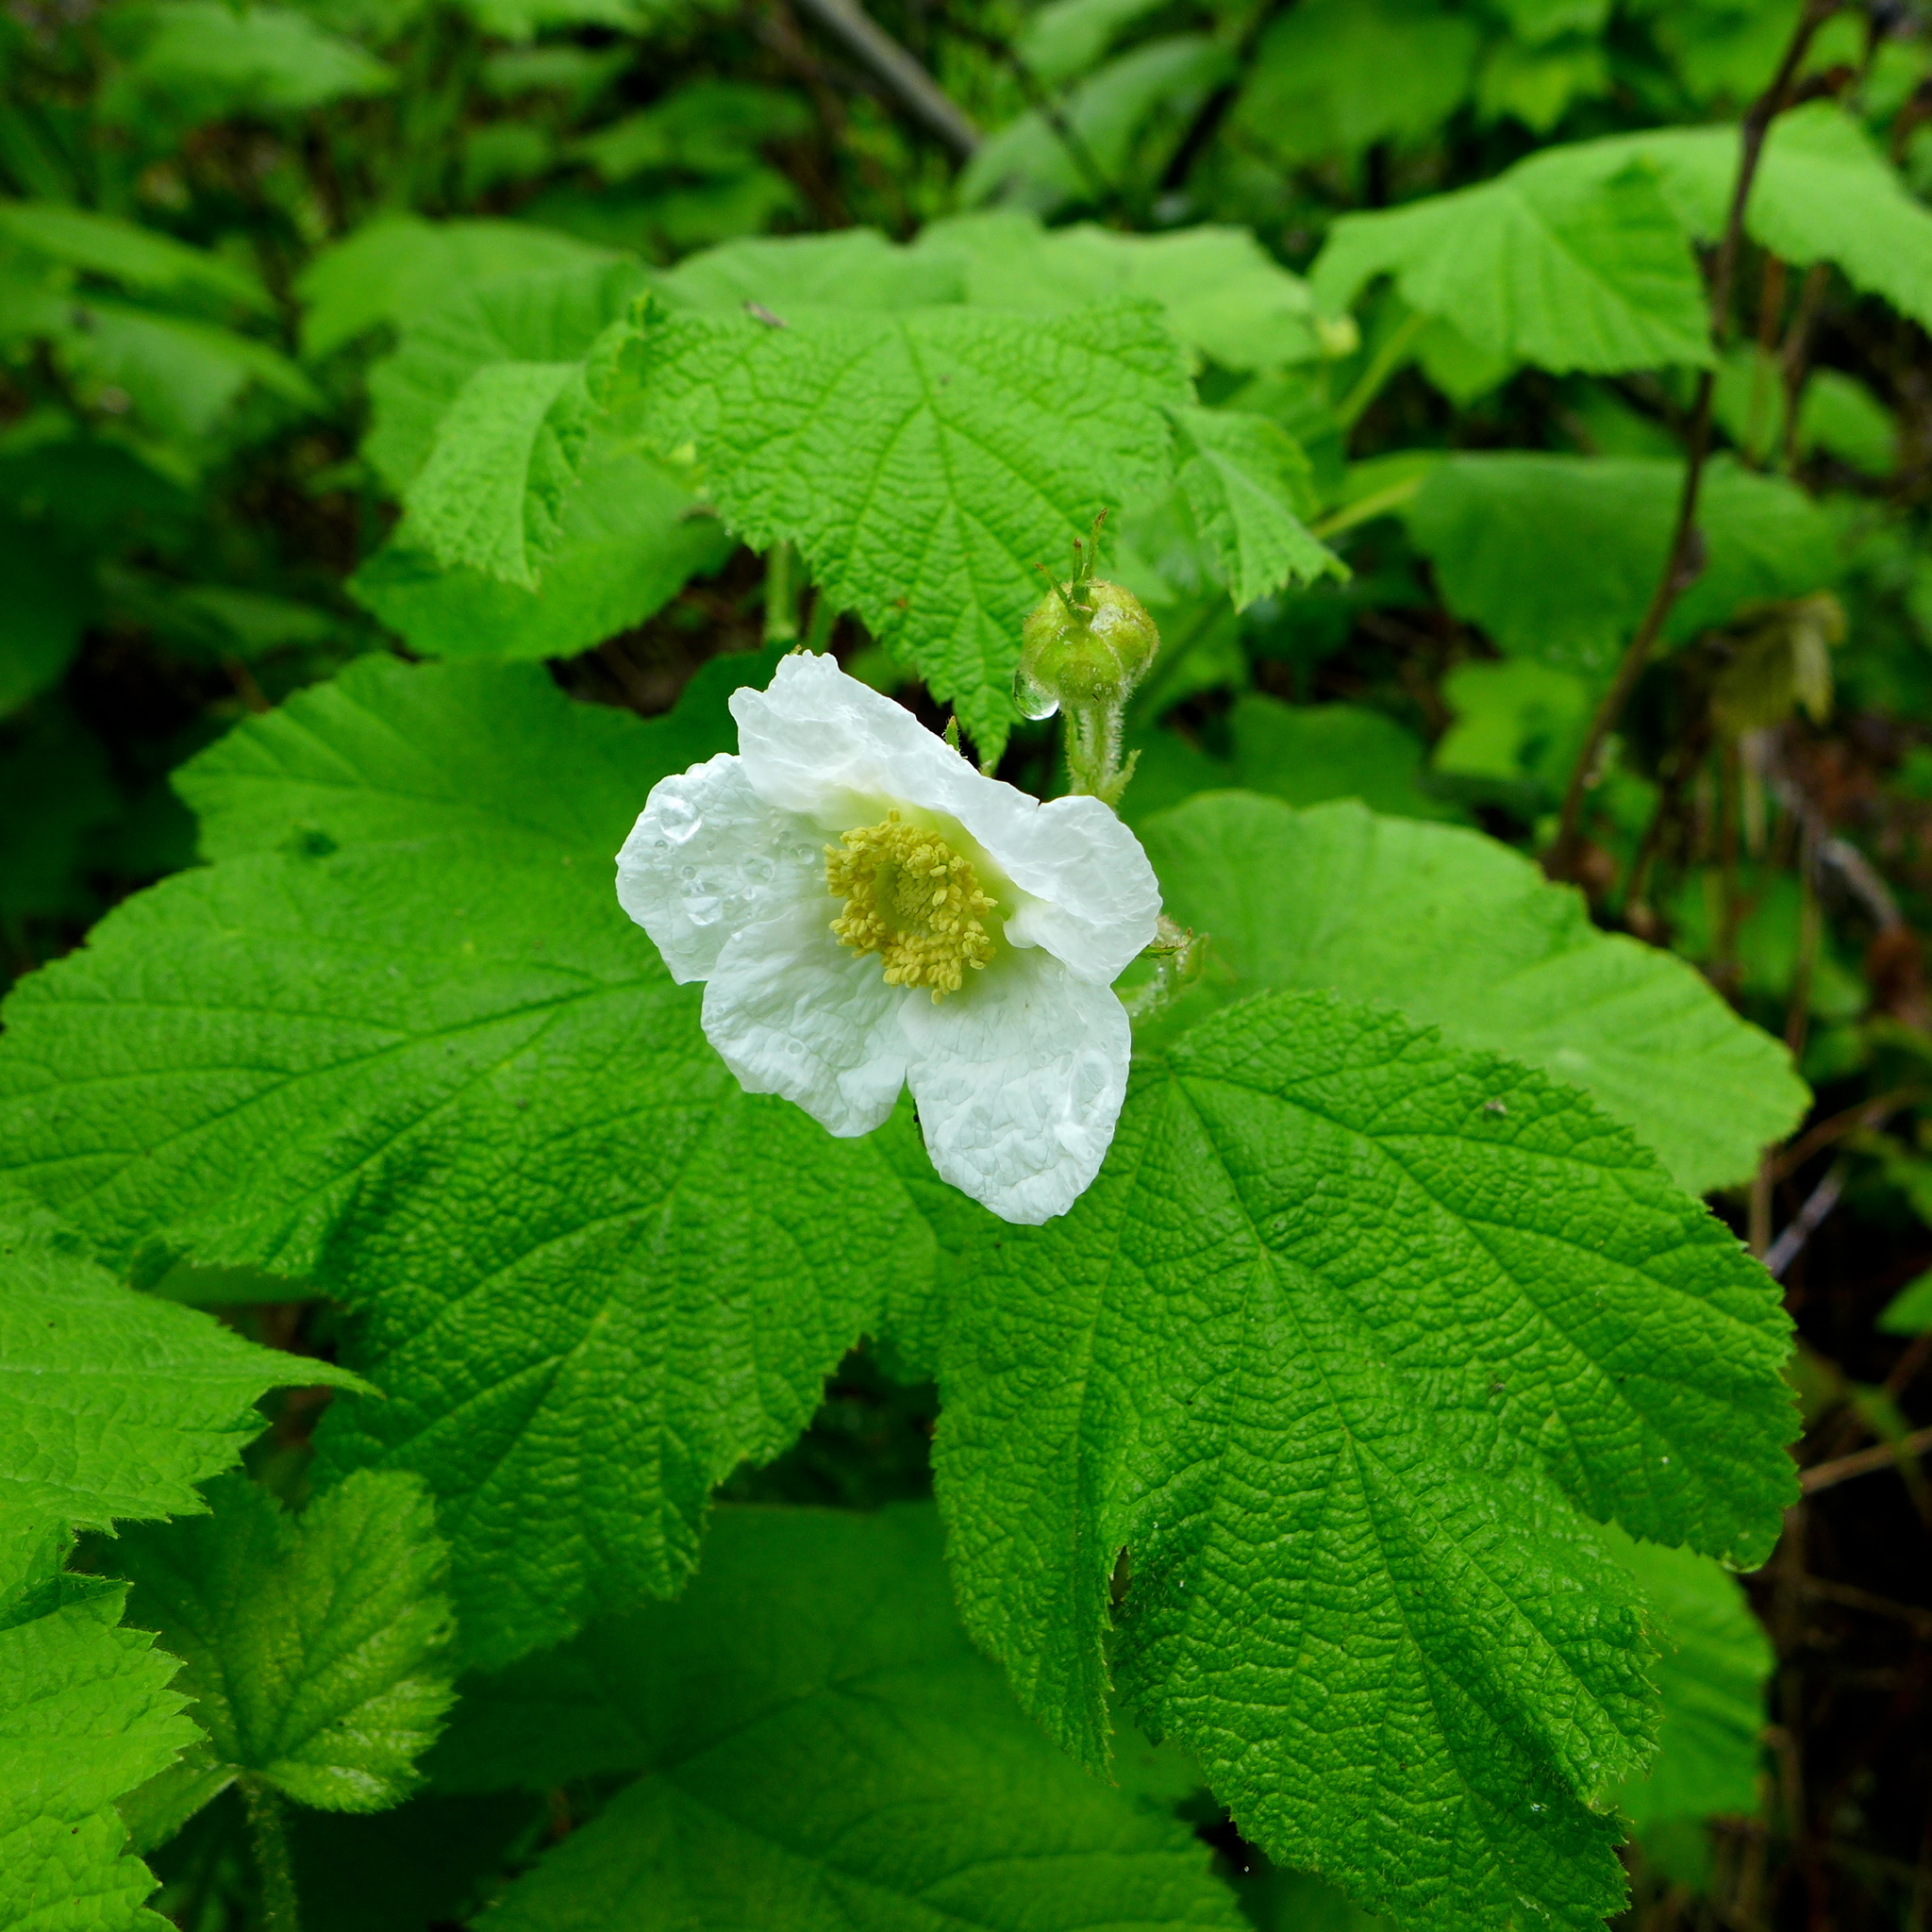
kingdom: Plantae
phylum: Tracheophyta
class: Magnoliopsida
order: Rosales
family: Rosaceae
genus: Rubus
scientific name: Rubus parviflorus
